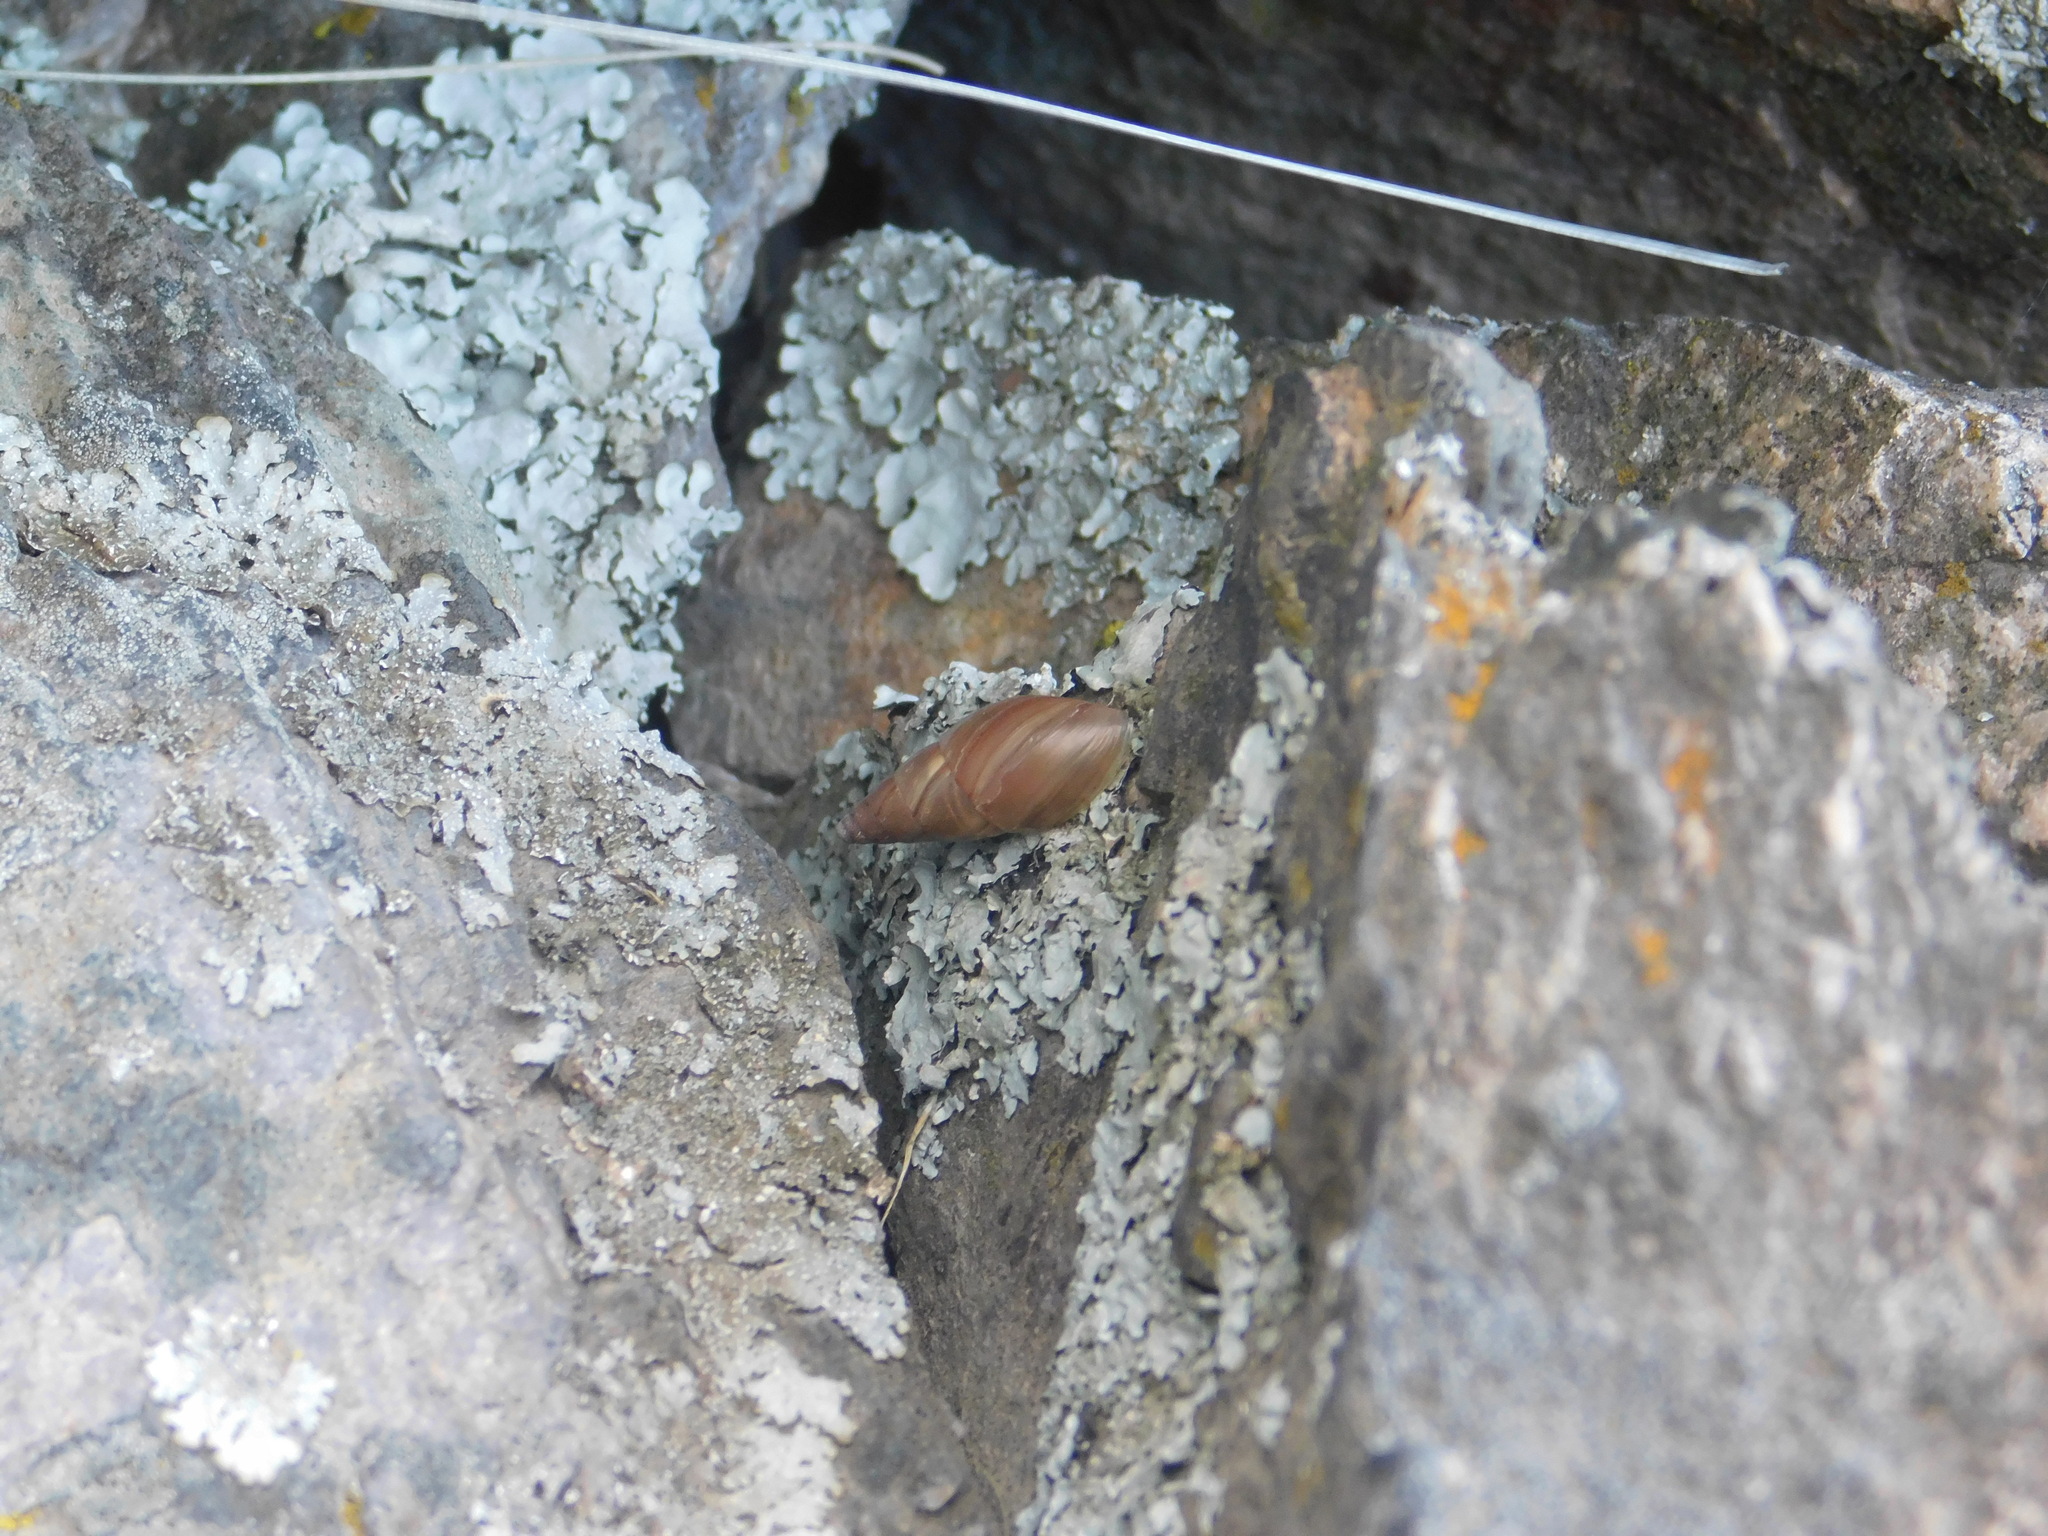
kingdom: Animalia
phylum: Mollusca
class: Gastropoda
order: Stylommatophora
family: Odontostomidae
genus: Ventania
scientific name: Ventania avellanedae
